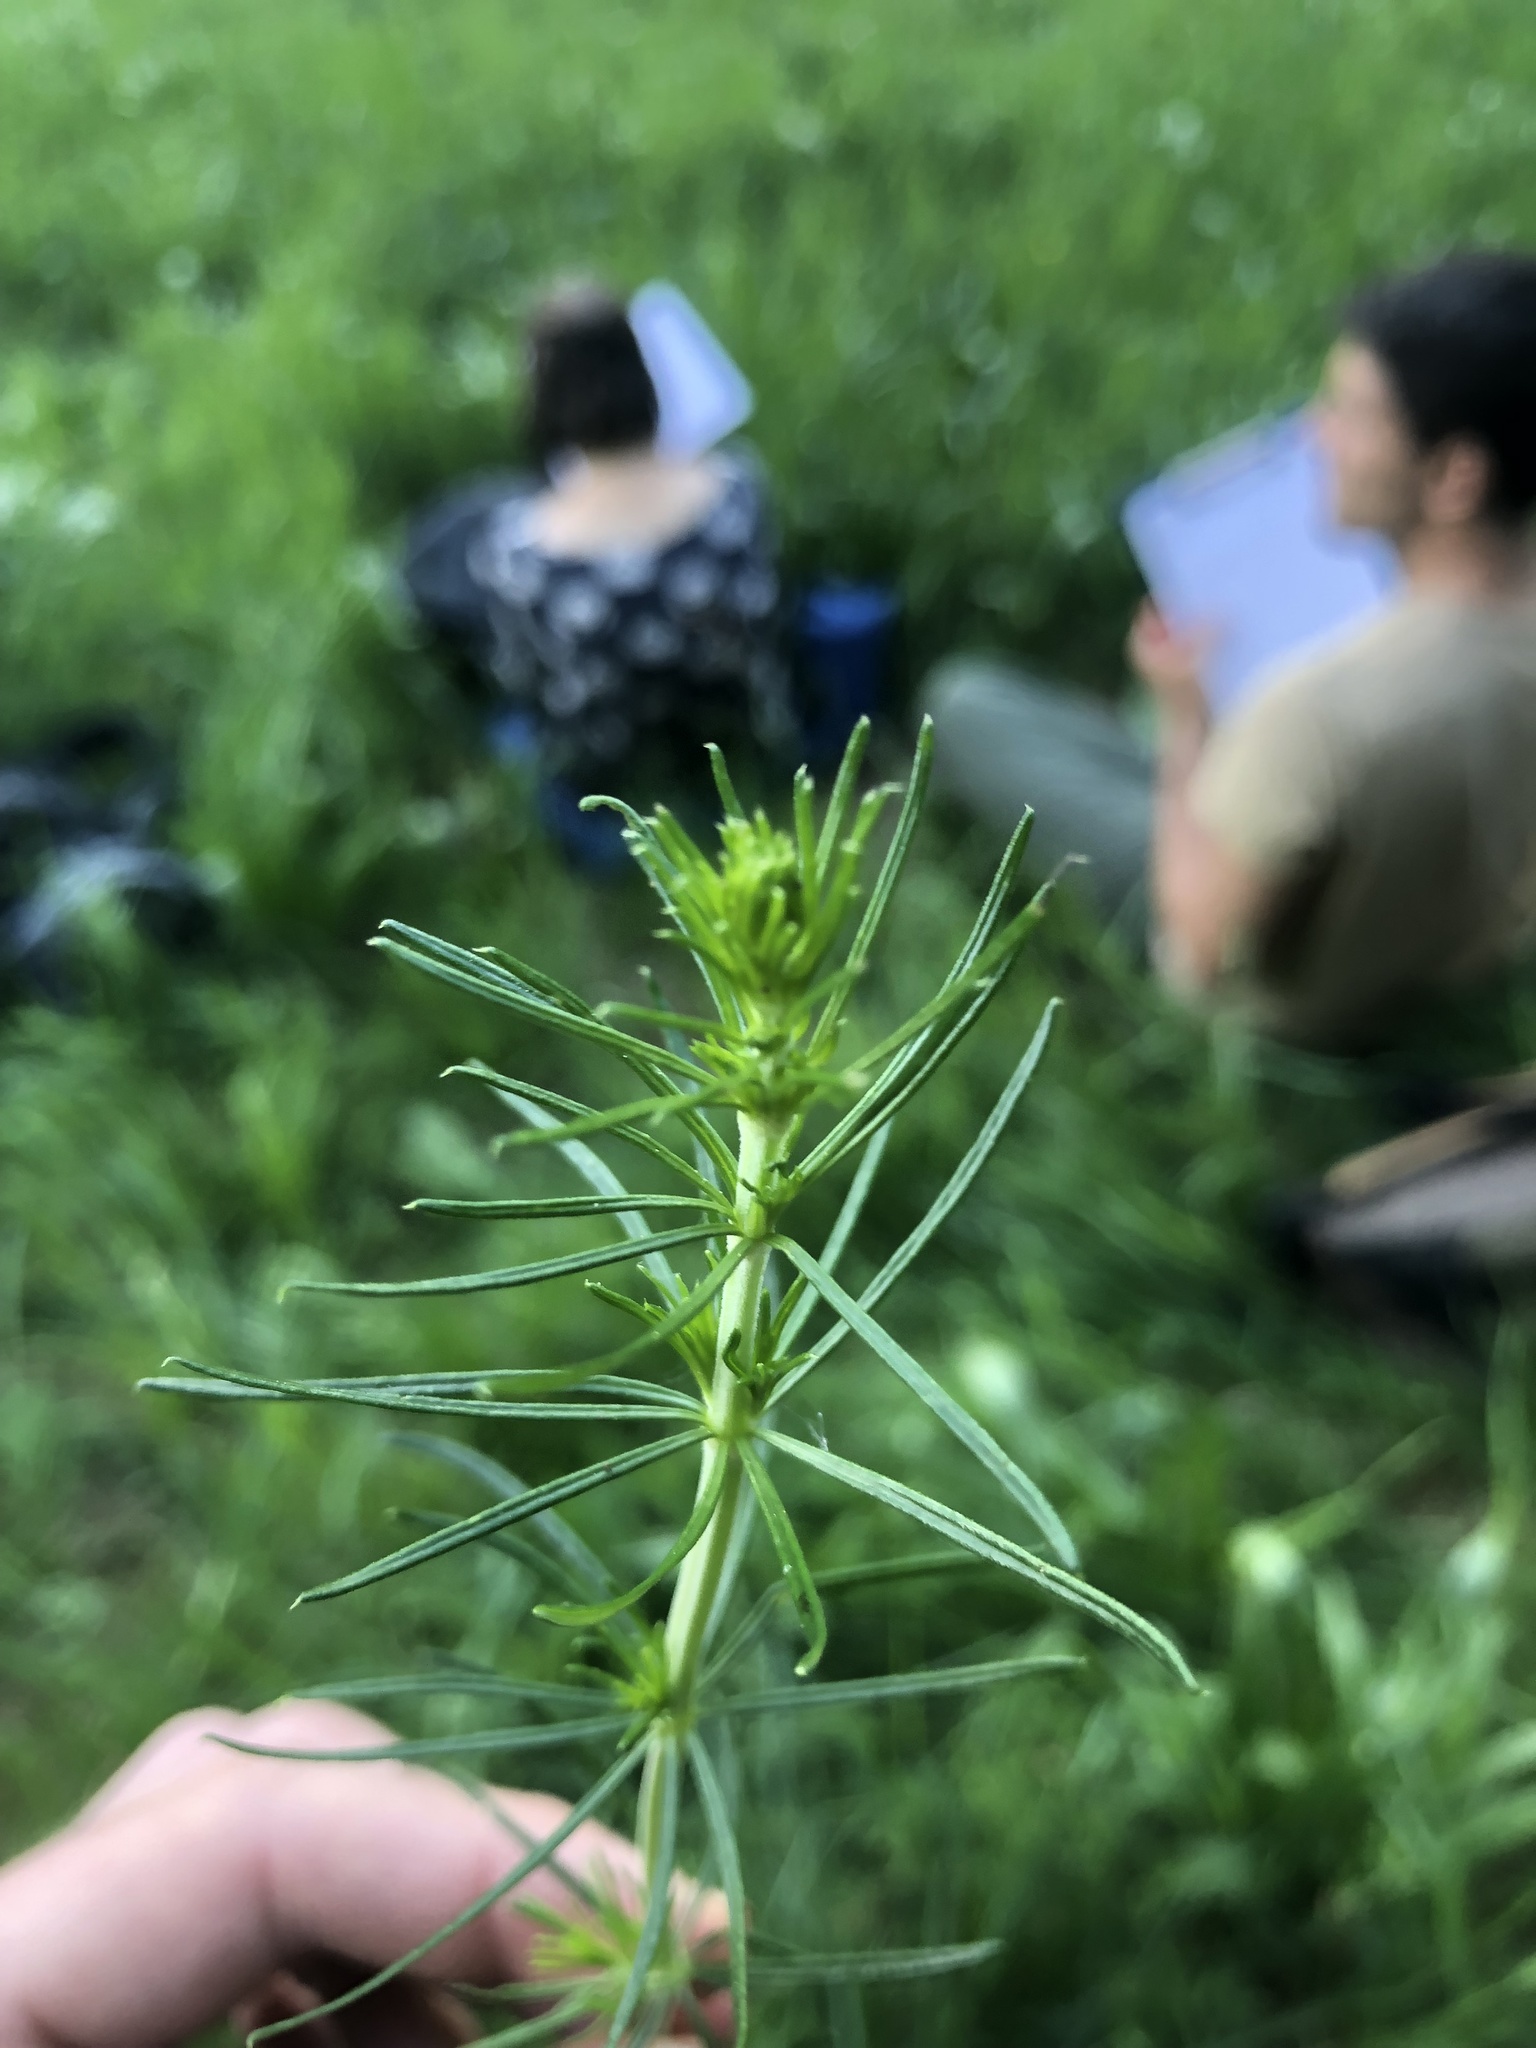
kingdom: Plantae
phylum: Tracheophyta
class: Magnoliopsida
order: Gentianales
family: Rubiaceae
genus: Galium
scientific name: Galium verum
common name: Lady's bedstraw
